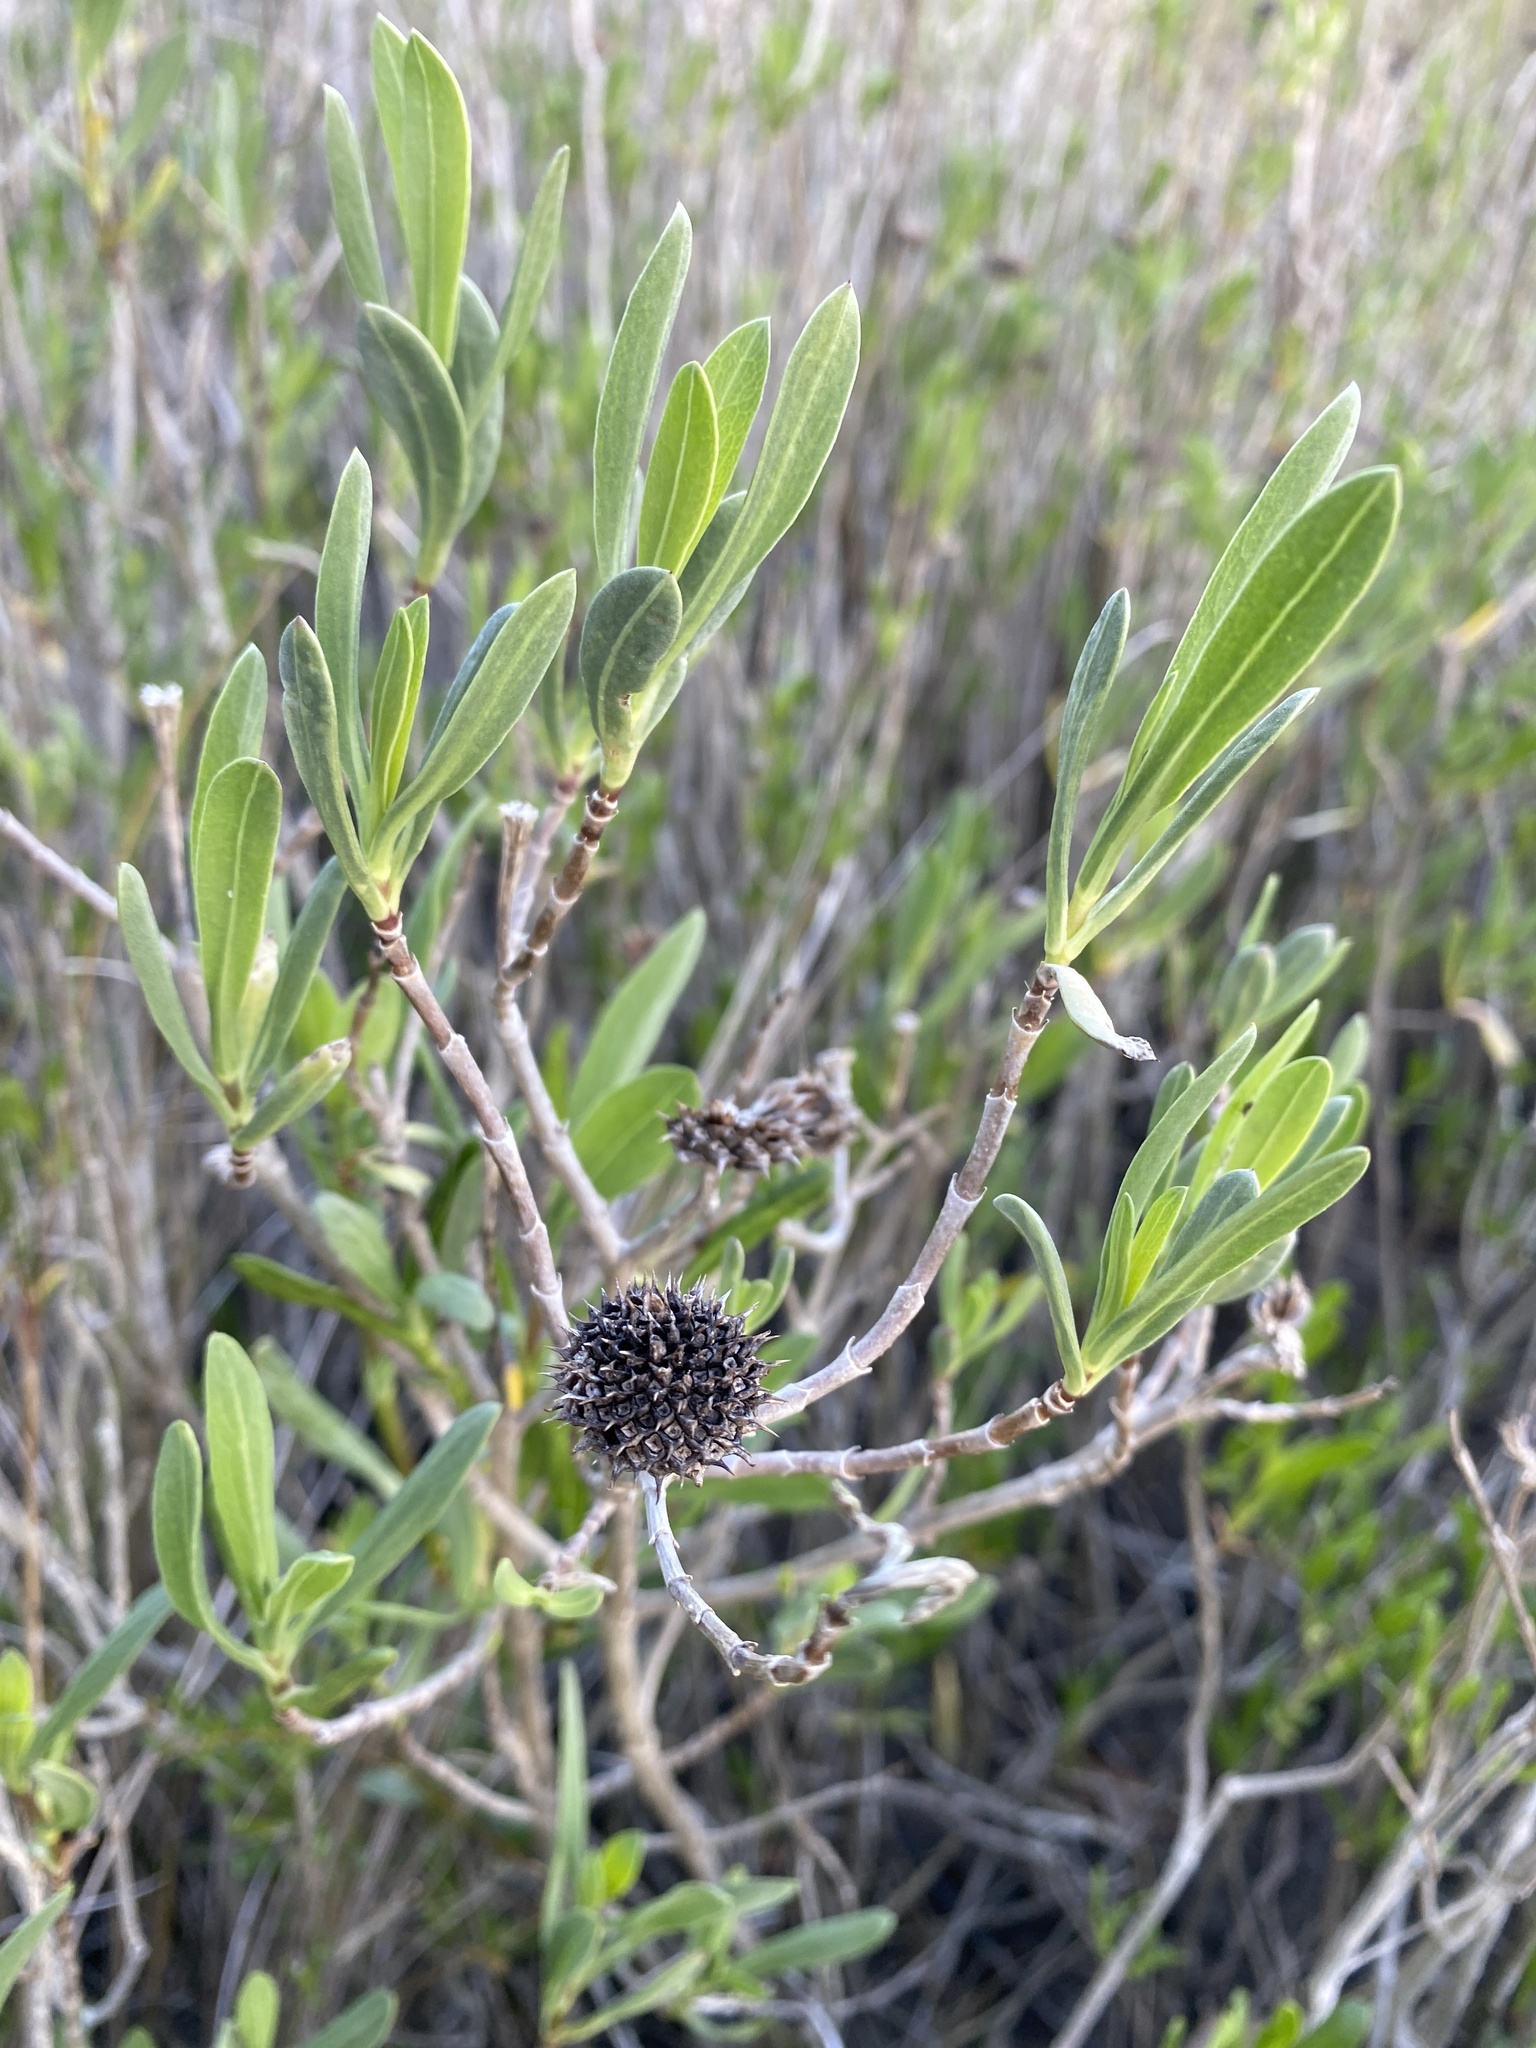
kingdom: Plantae
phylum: Tracheophyta
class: Magnoliopsida
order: Asterales
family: Asteraceae
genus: Borrichia
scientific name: Borrichia frutescens
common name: Sea oxeye
